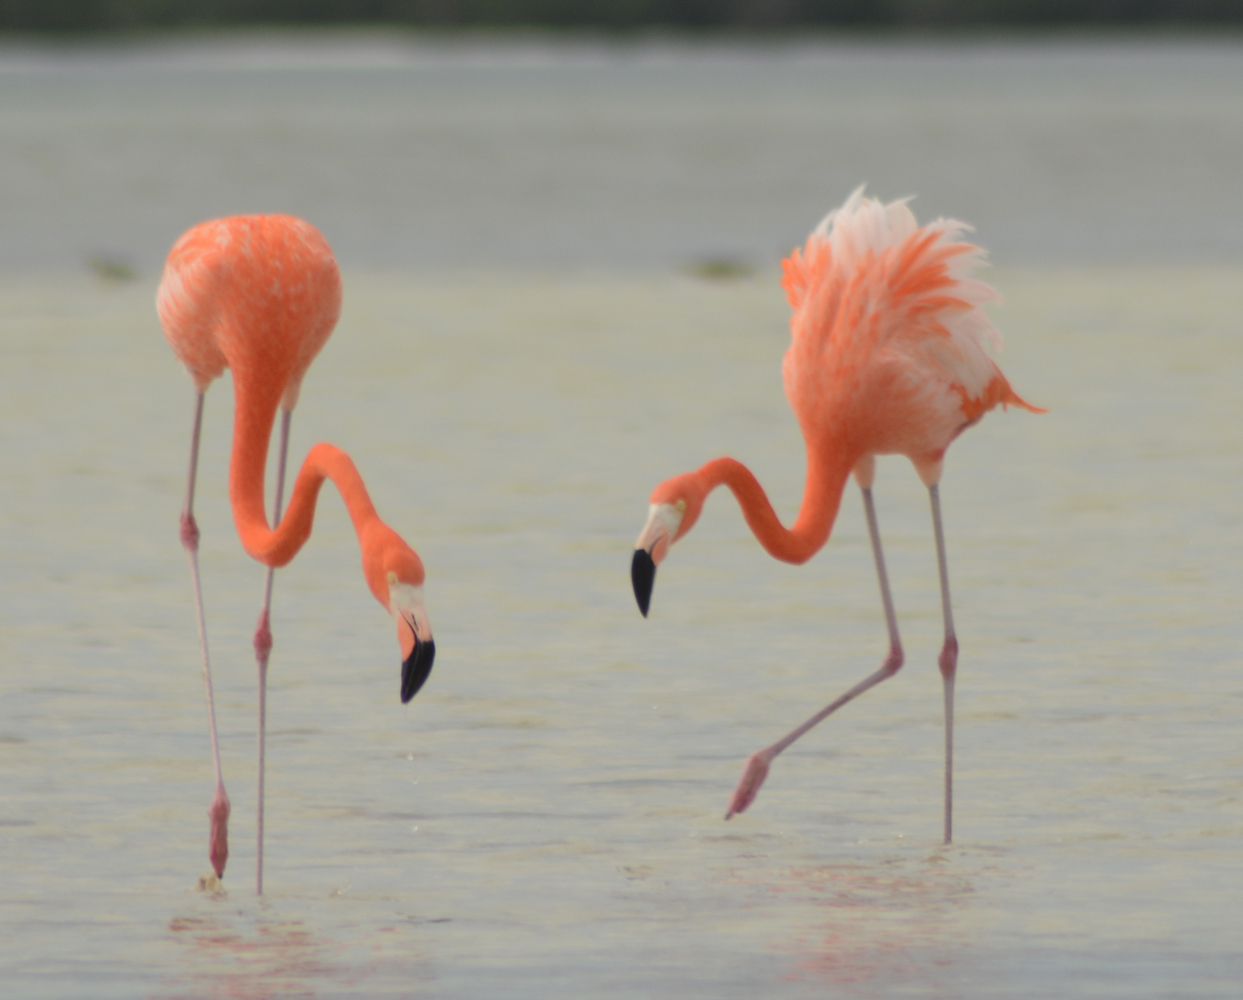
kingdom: Animalia
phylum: Chordata
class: Aves
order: Phoenicopteriformes
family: Phoenicopteridae
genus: Phoenicopterus
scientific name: Phoenicopterus ruber
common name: American flamingo
